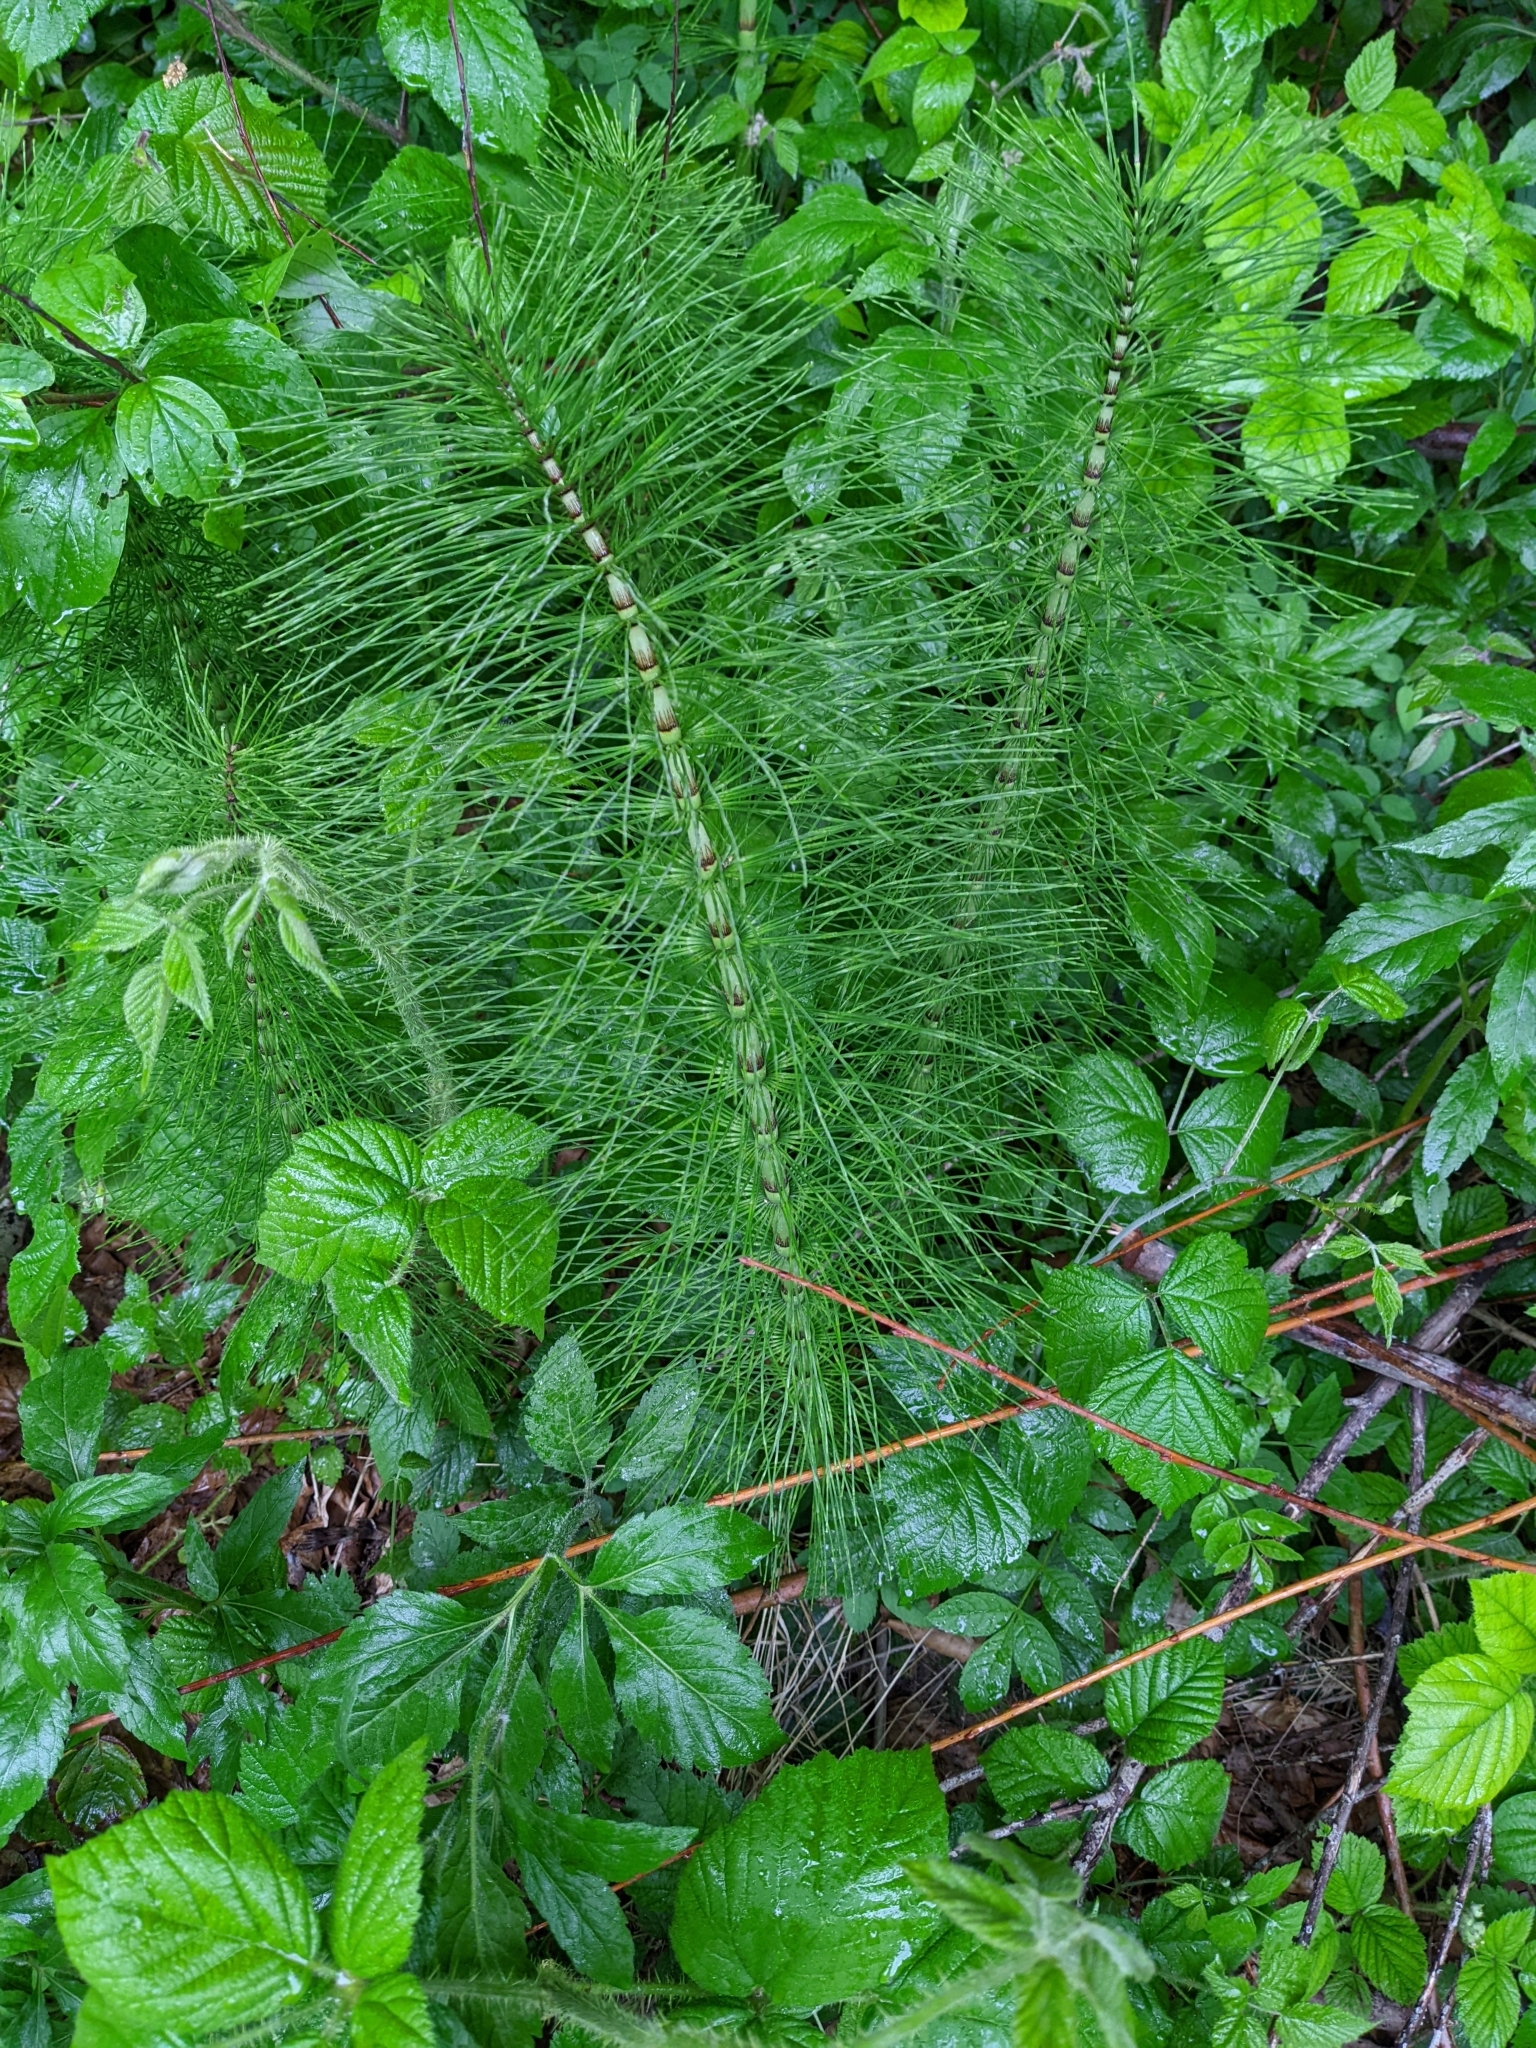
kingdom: Plantae
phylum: Tracheophyta
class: Polypodiopsida
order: Equisetales
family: Equisetaceae
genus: Equisetum
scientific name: Equisetum telmateia
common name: Great horsetail
